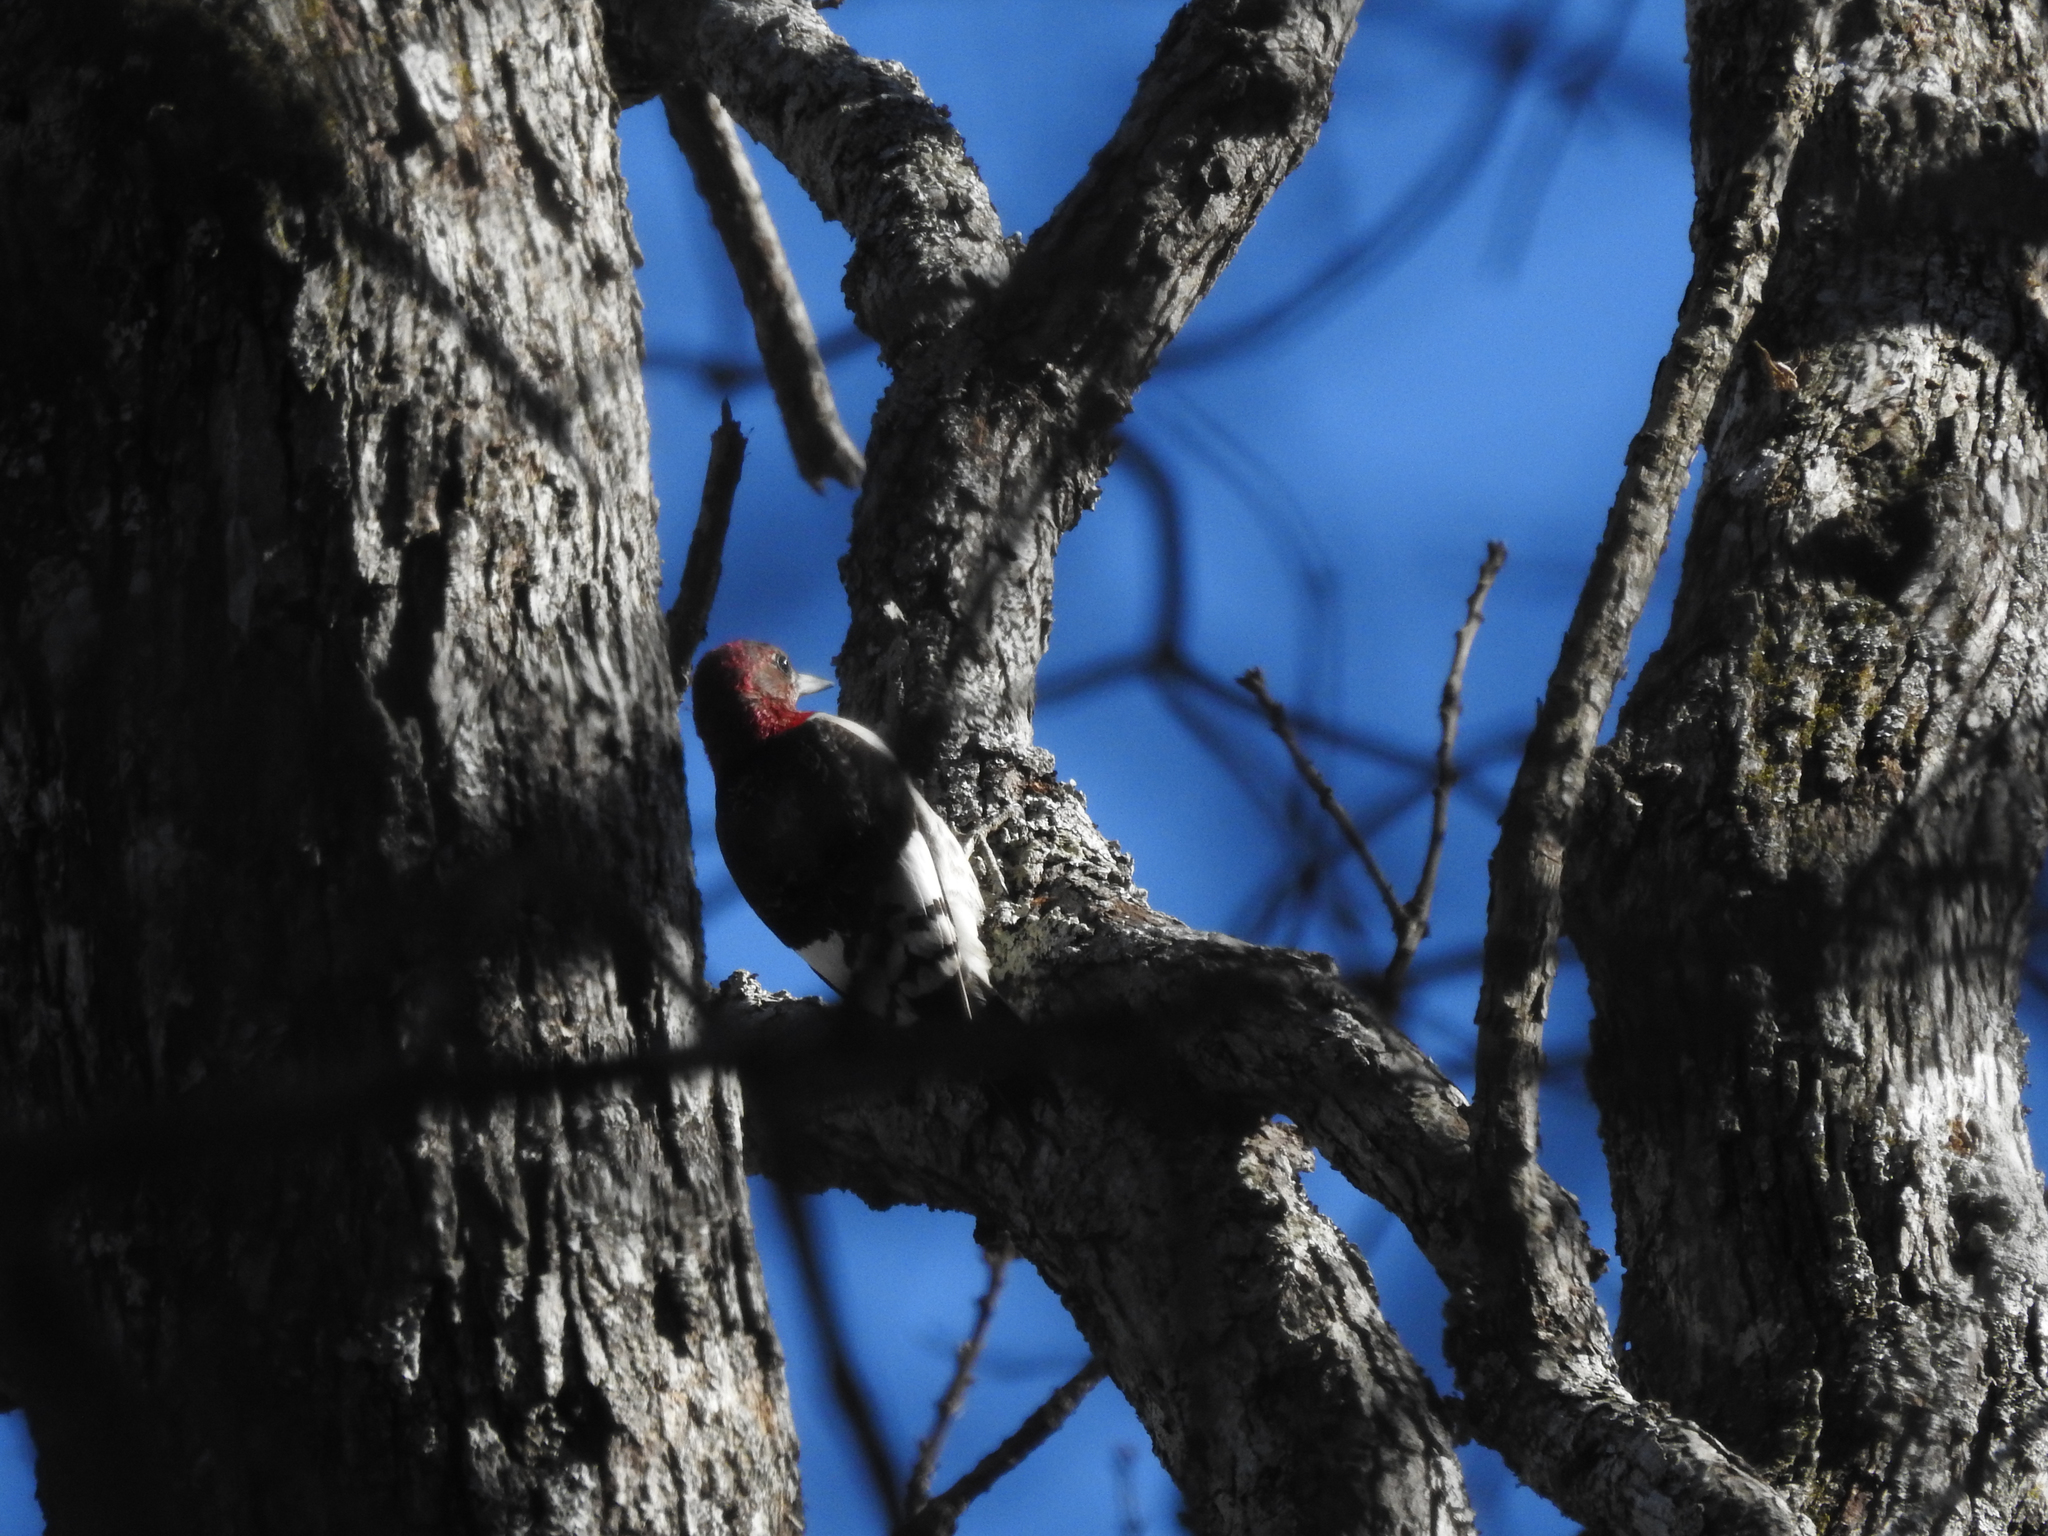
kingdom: Animalia
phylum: Chordata
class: Aves
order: Piciformes
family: Picidae
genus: Melanerpes
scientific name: Melanerpes erythrocephalus
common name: Red-headed woodpecker
